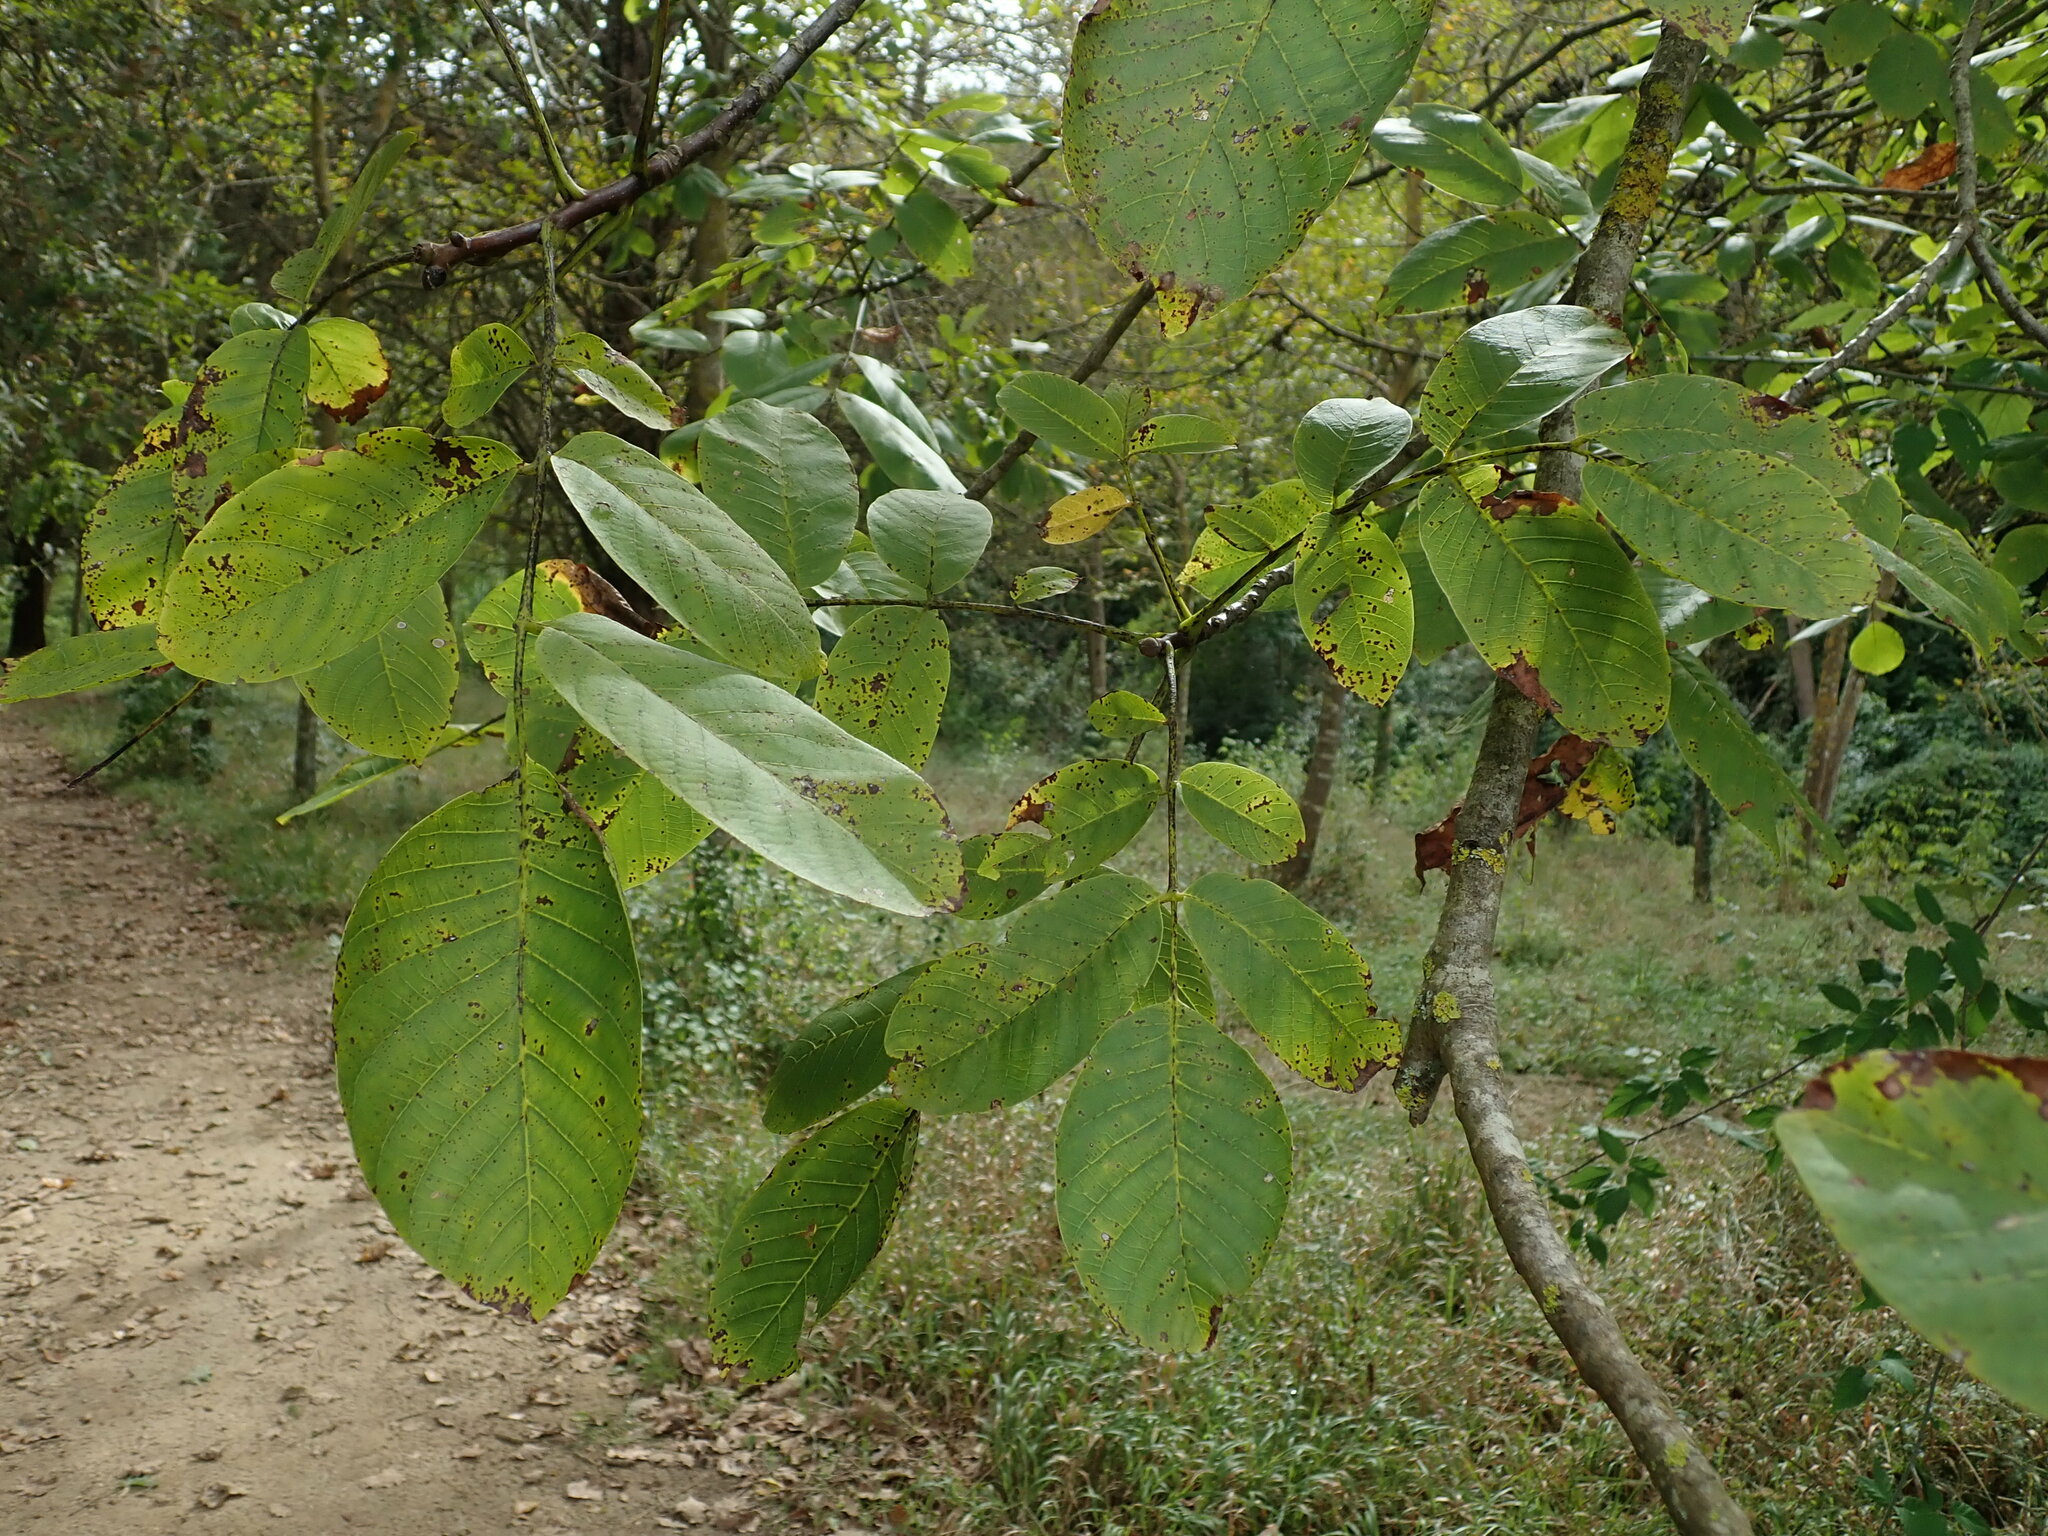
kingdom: Plantae
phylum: Tracheophyta
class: Magnoliopsida
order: Fagales
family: Juglandaceae
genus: Juglans
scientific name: Juglans regia
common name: Walnut
